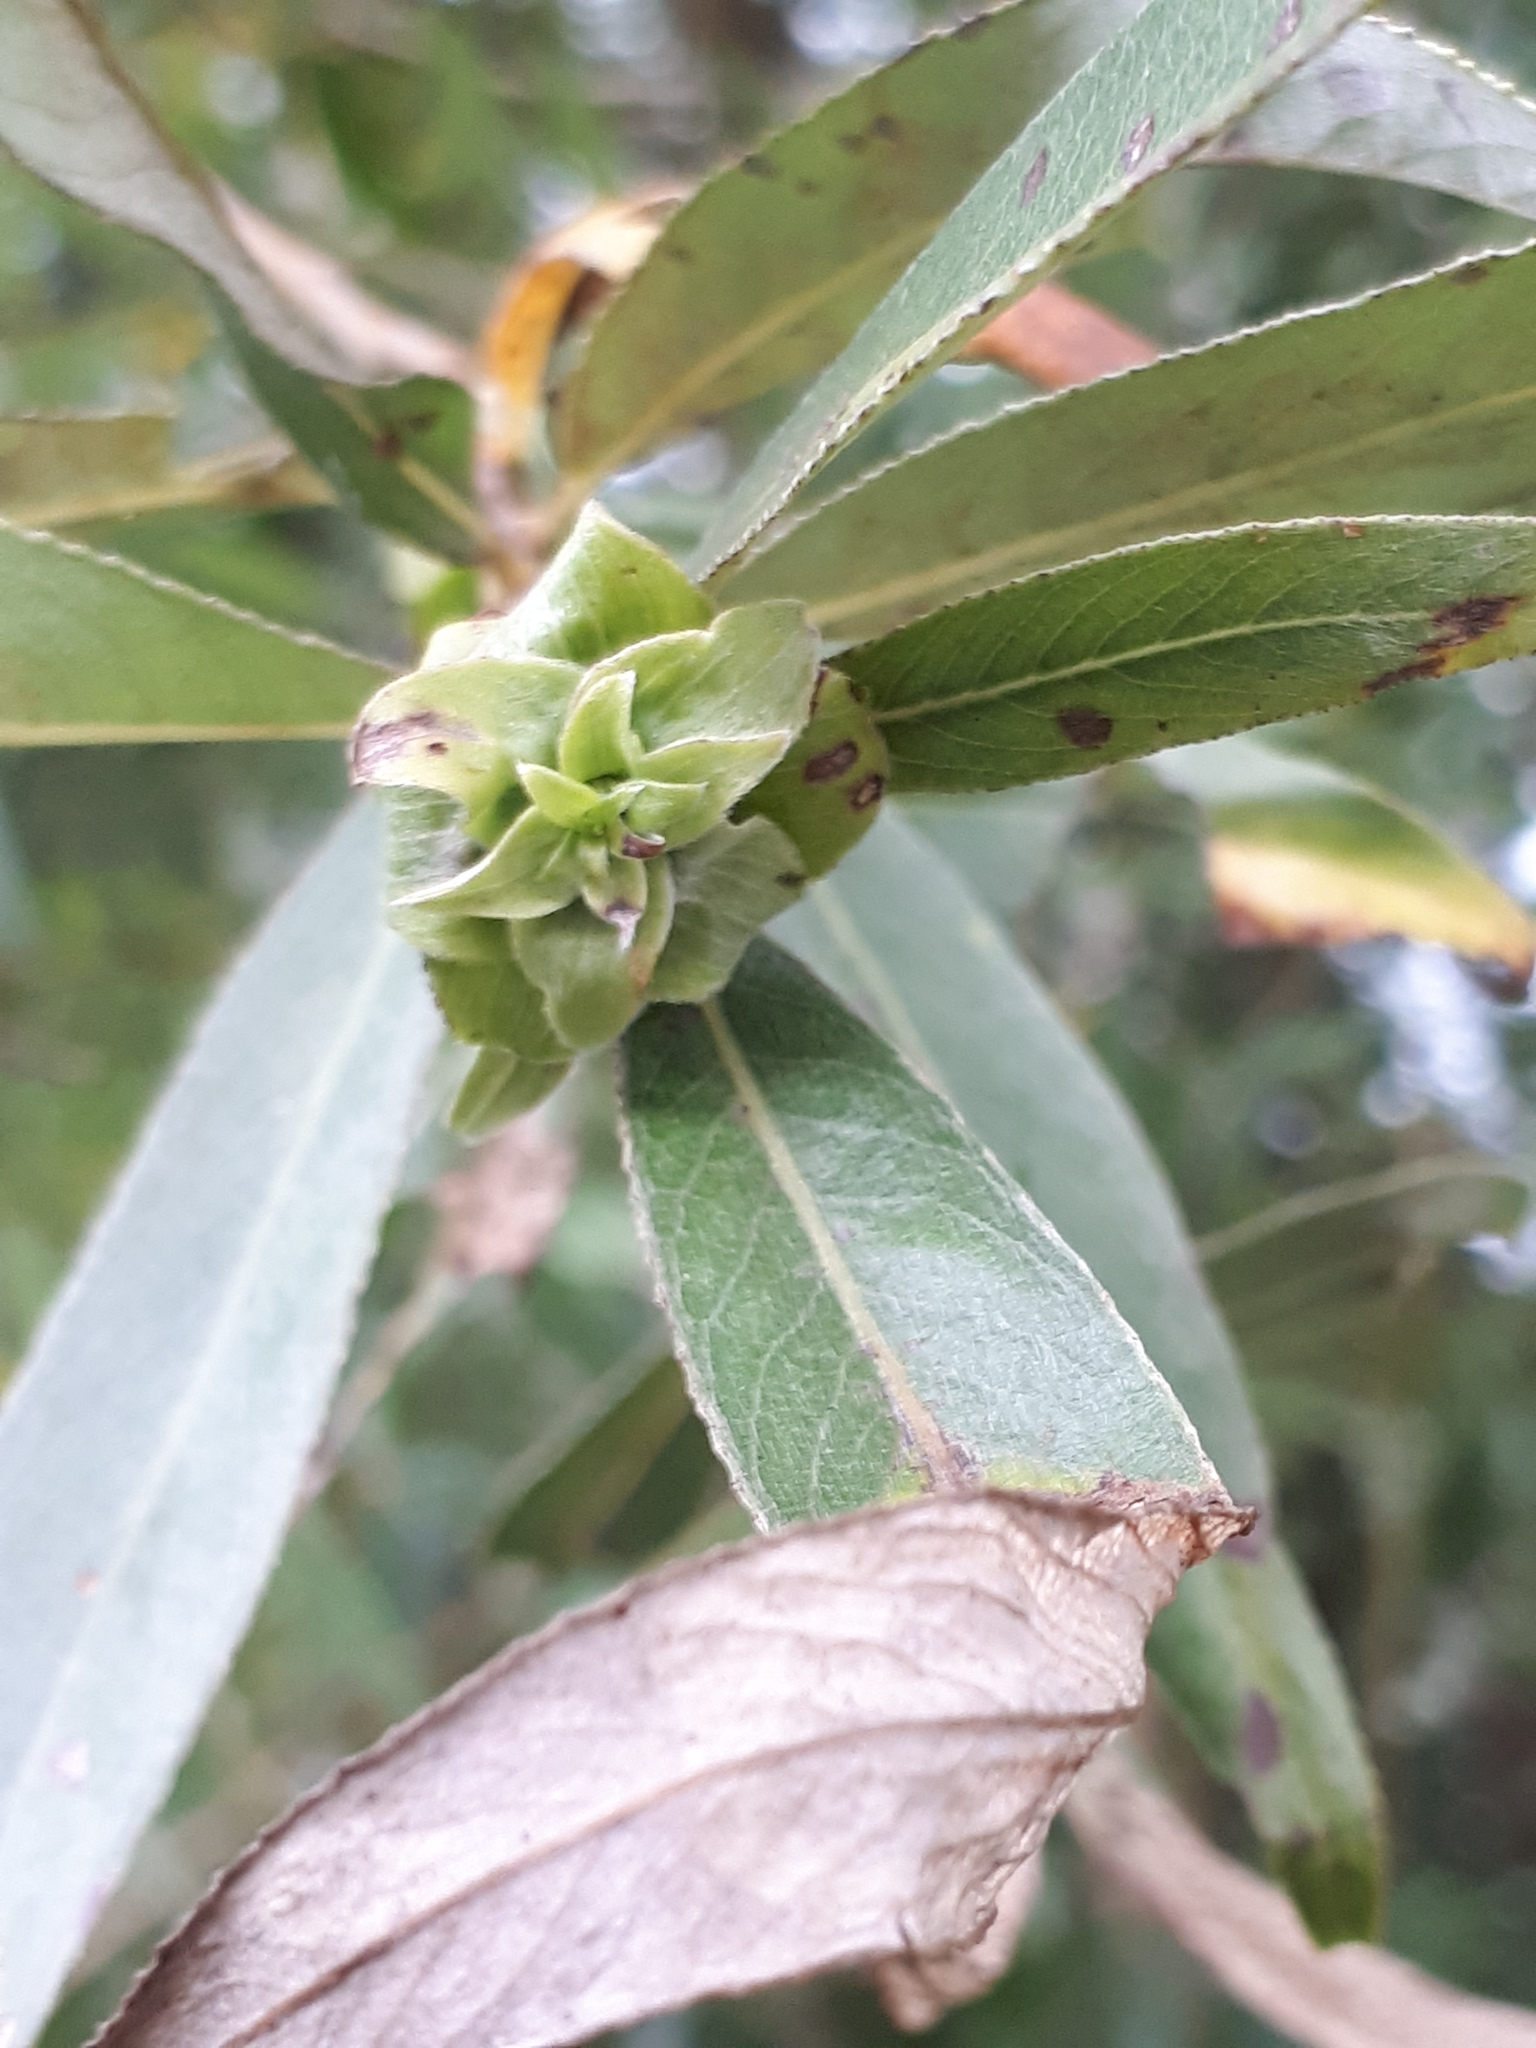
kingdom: Animalia
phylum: Arthropoda
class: Insecta
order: Diptera
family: Cecidomyiidae
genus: Rabdophaga
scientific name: Rabdophaga rosaria
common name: Willow rose gall midge
